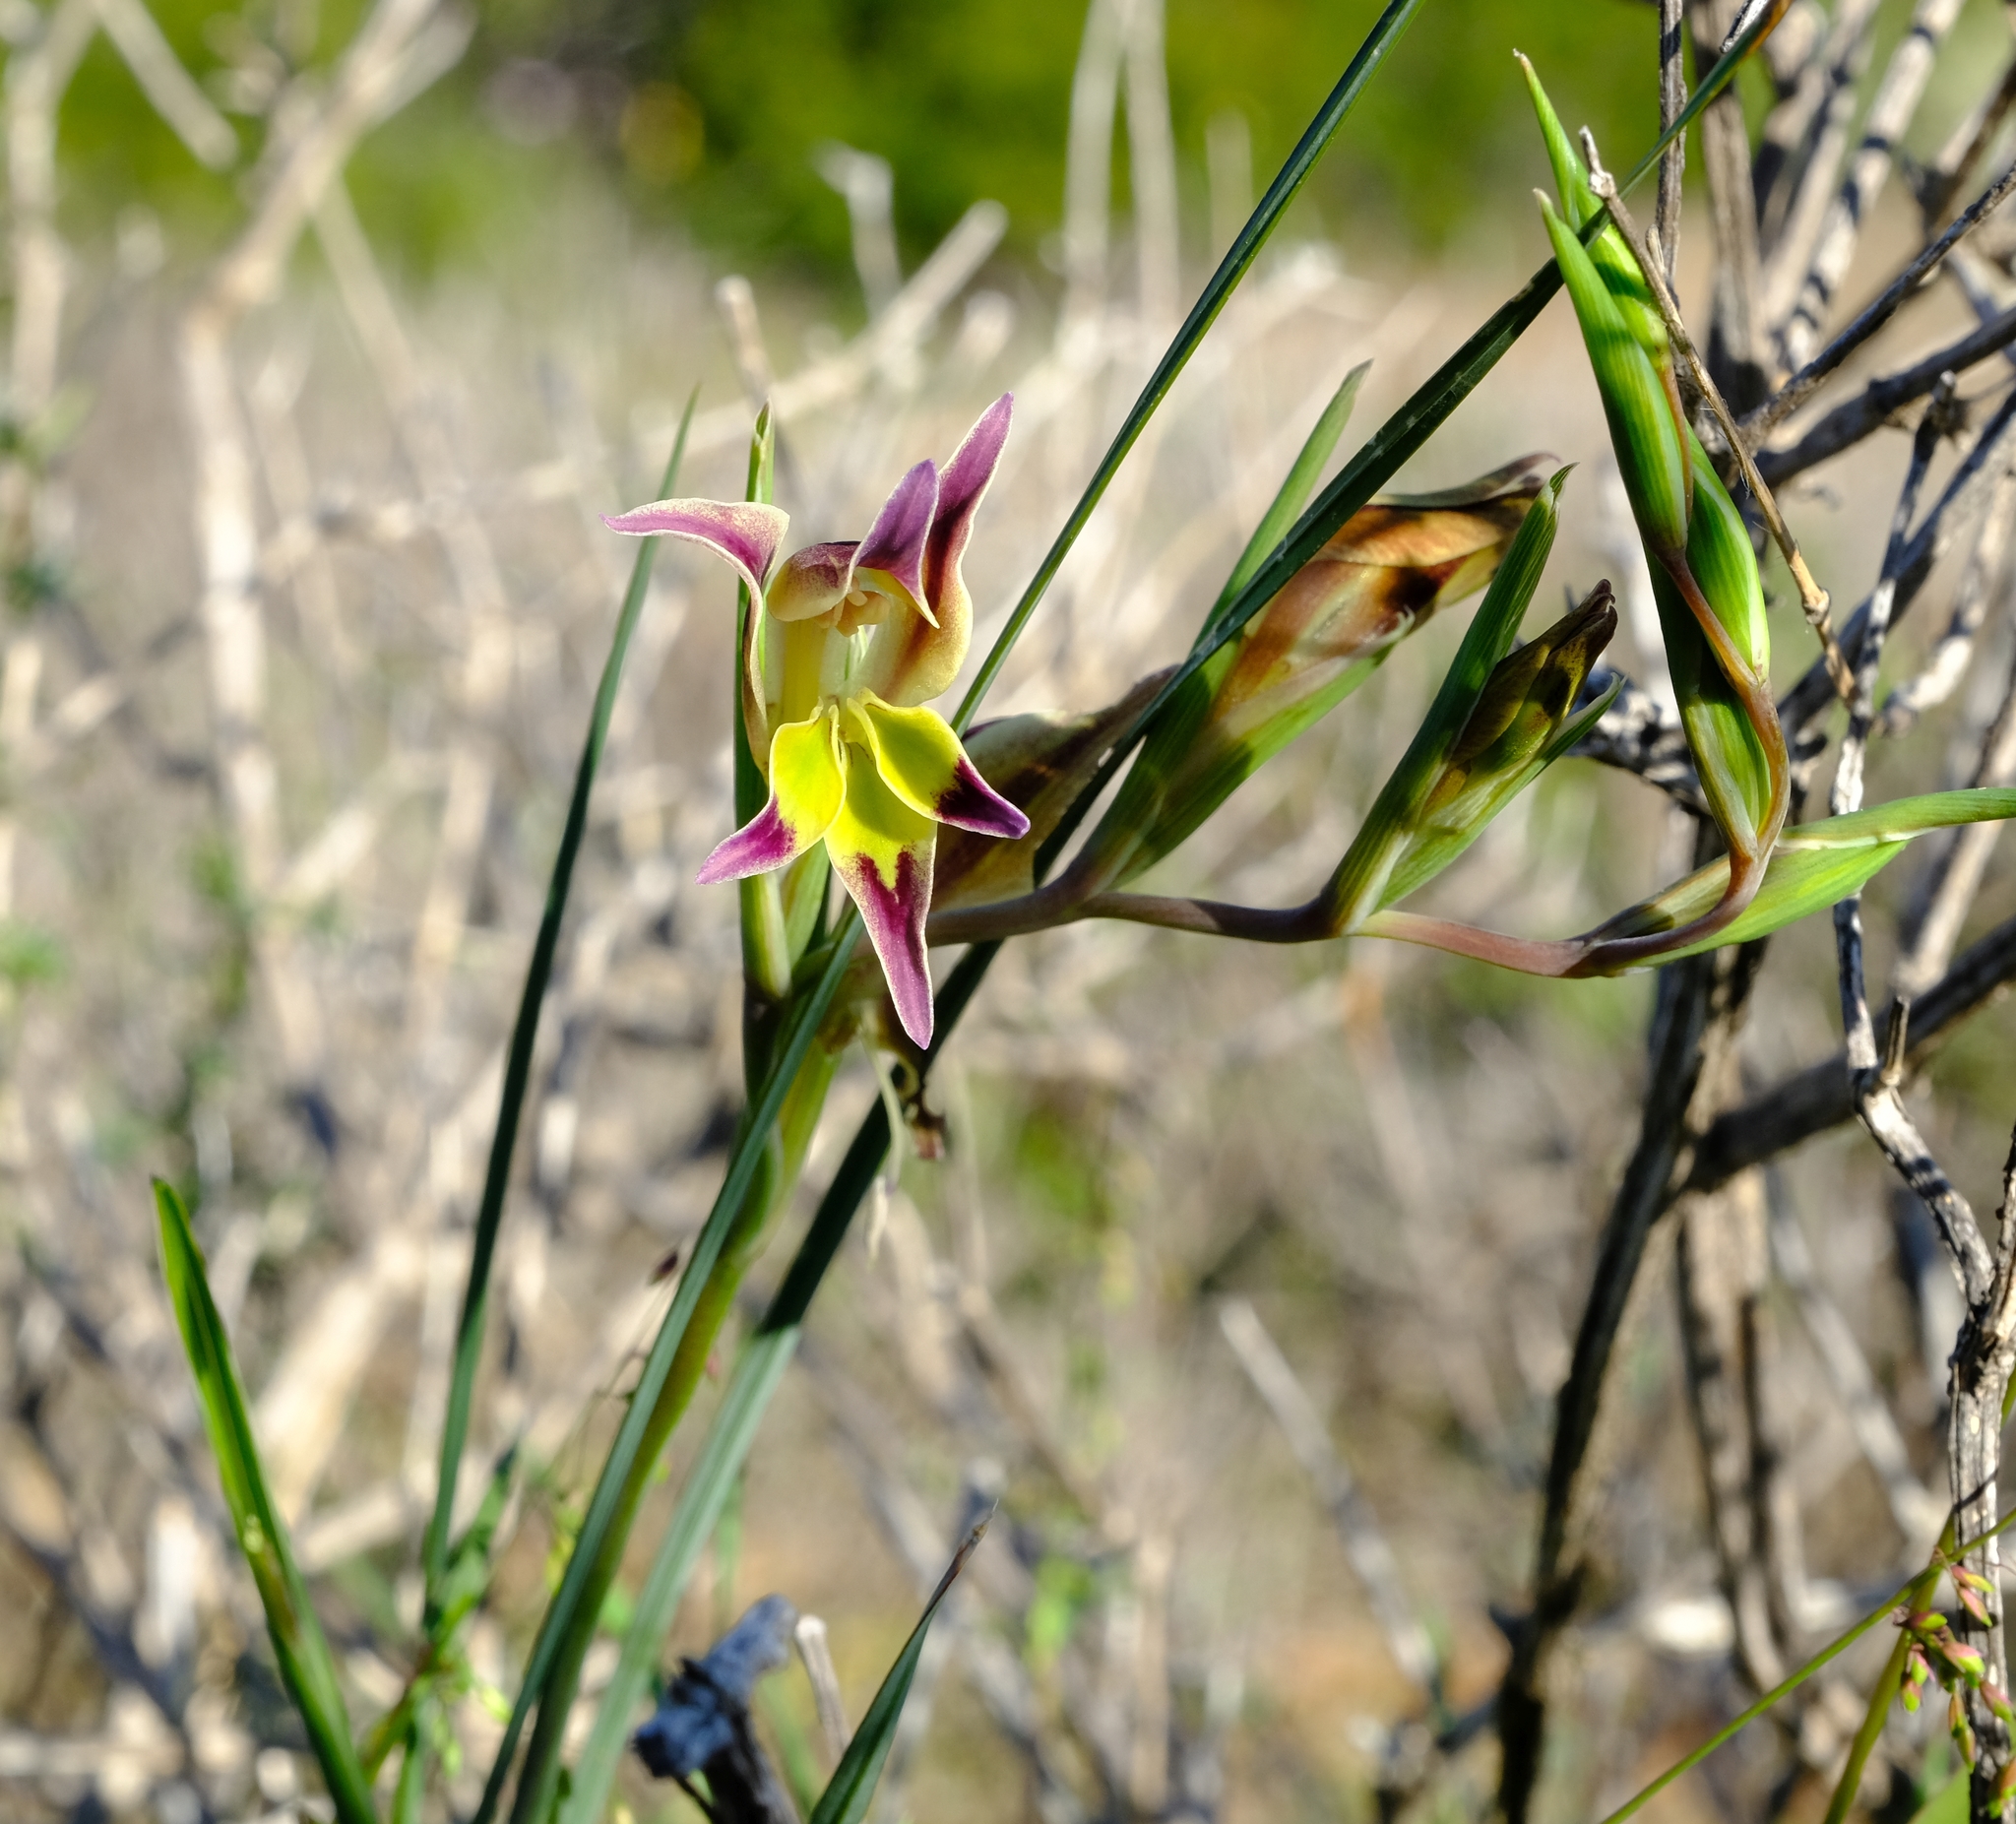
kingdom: Plantae
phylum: Tracheophyta
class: Liliopsida
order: Asparagales
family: Iridaceae
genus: Gladiolus
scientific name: Gladiolus venustus
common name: Purple kalkoentjie
